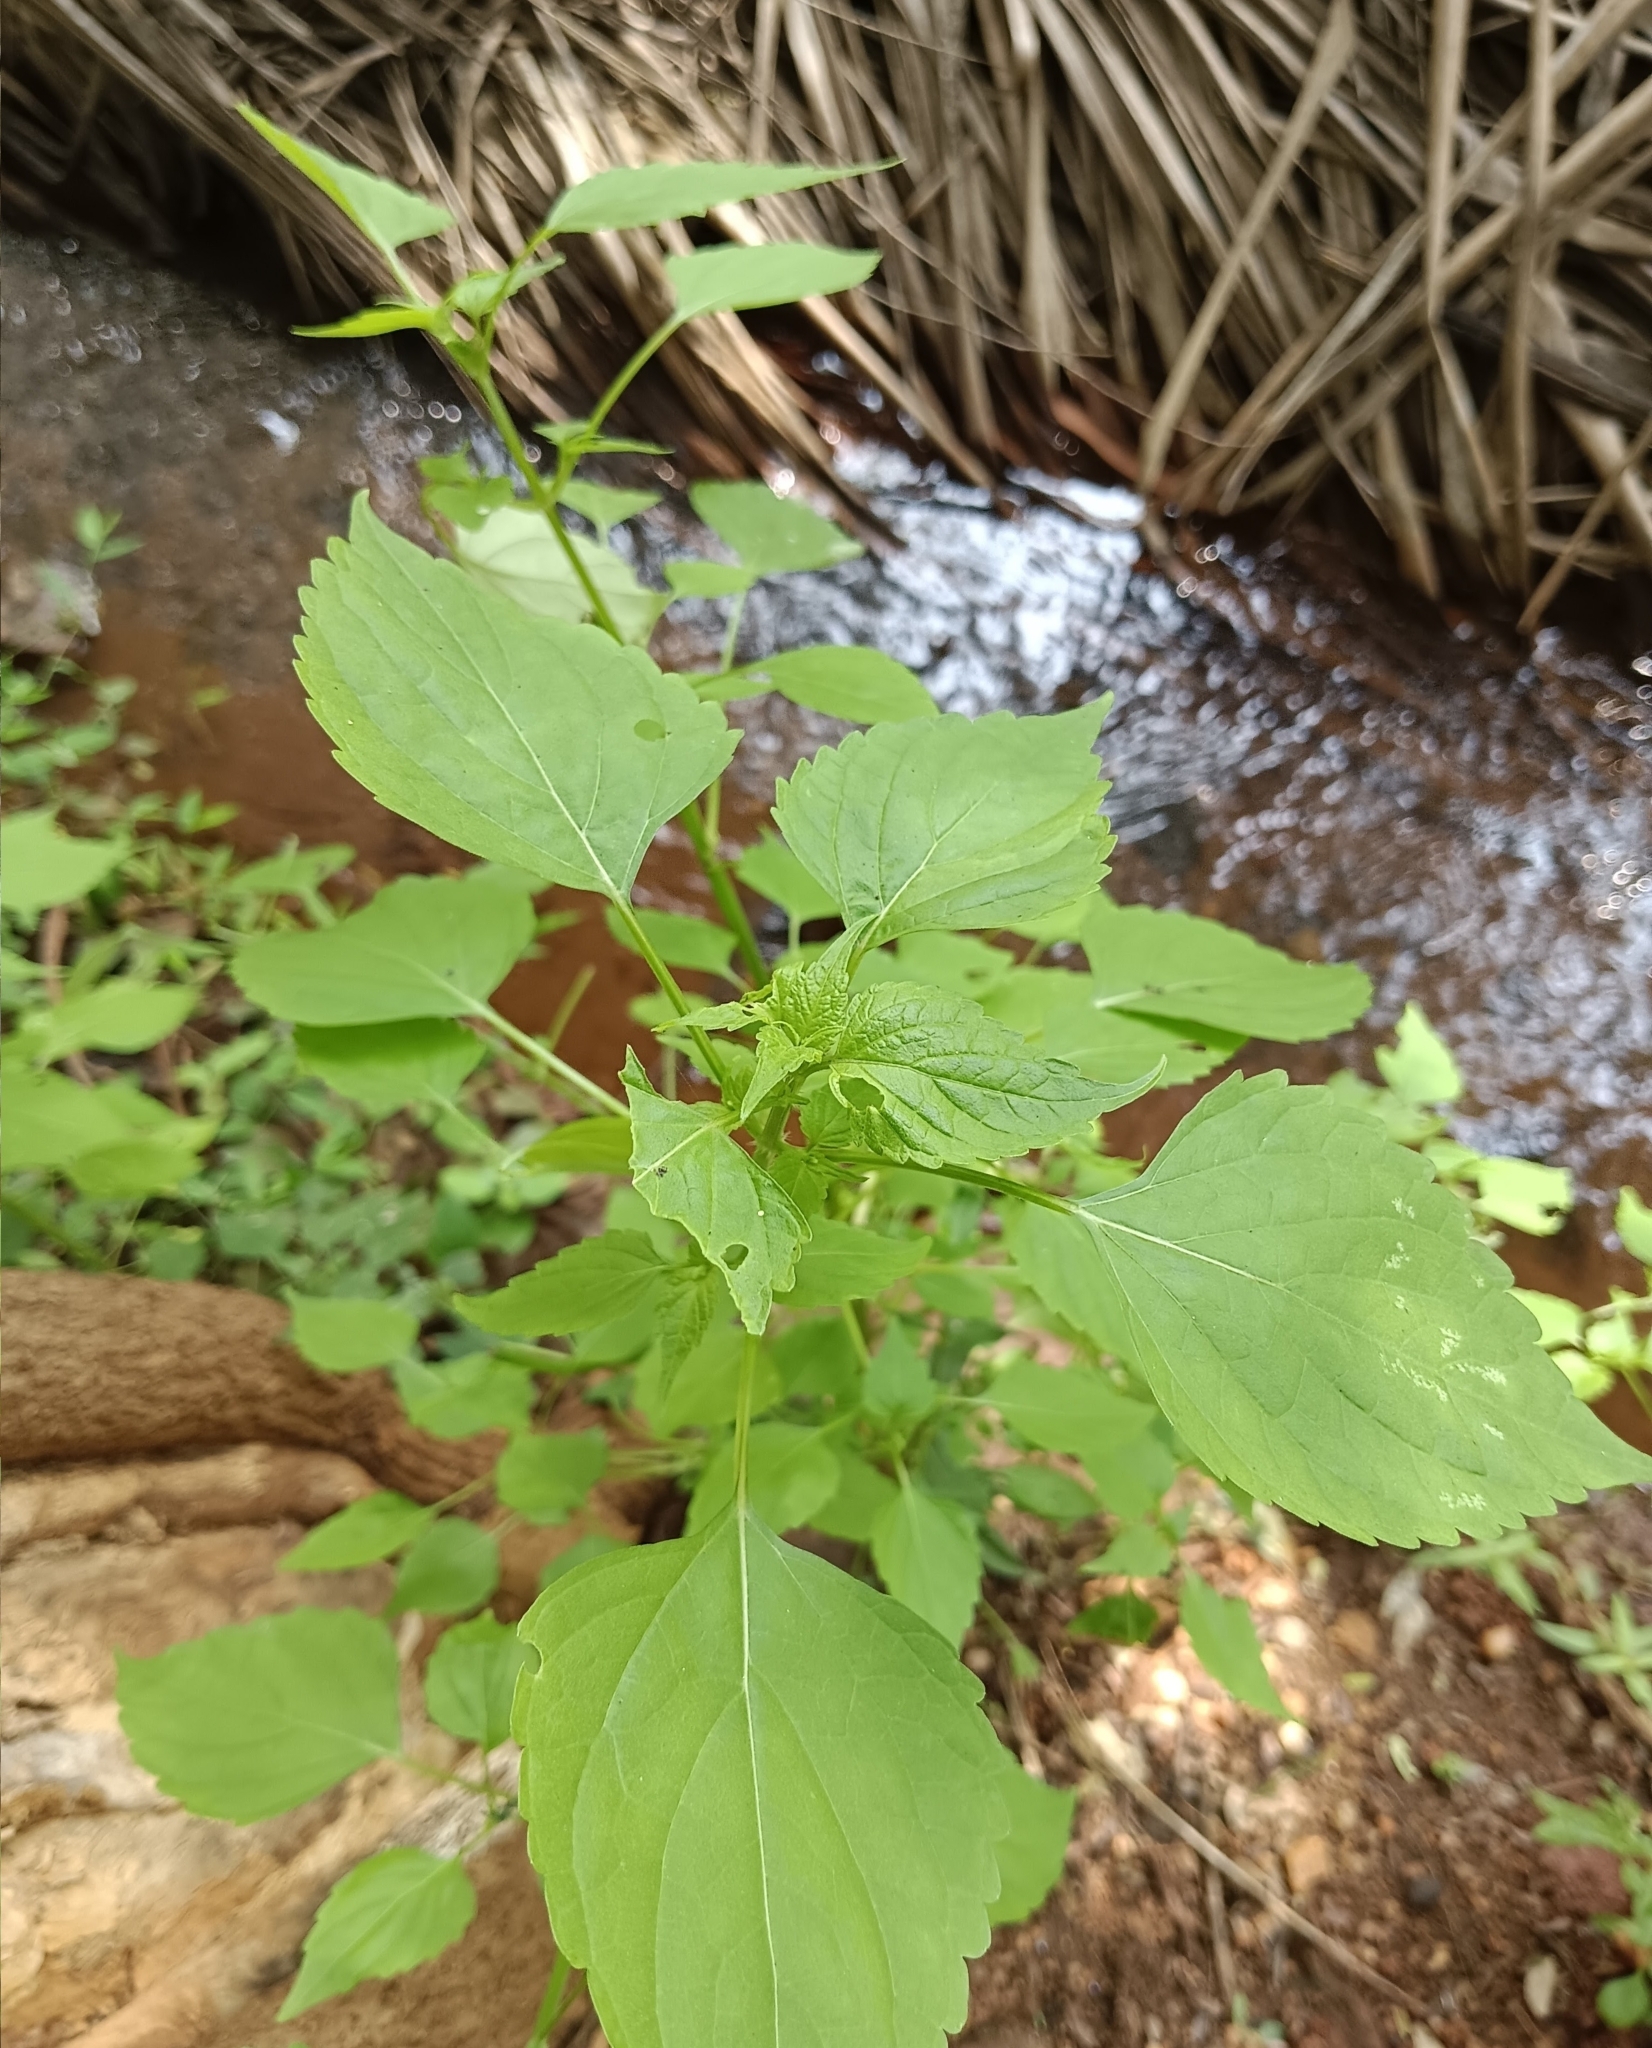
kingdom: Plantae
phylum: Tracheophyta
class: Magnoliopsida
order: Malpighiales
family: Euphorbiaceae
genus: Acalypha
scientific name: Acalypha indica
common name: Indian acalypha
